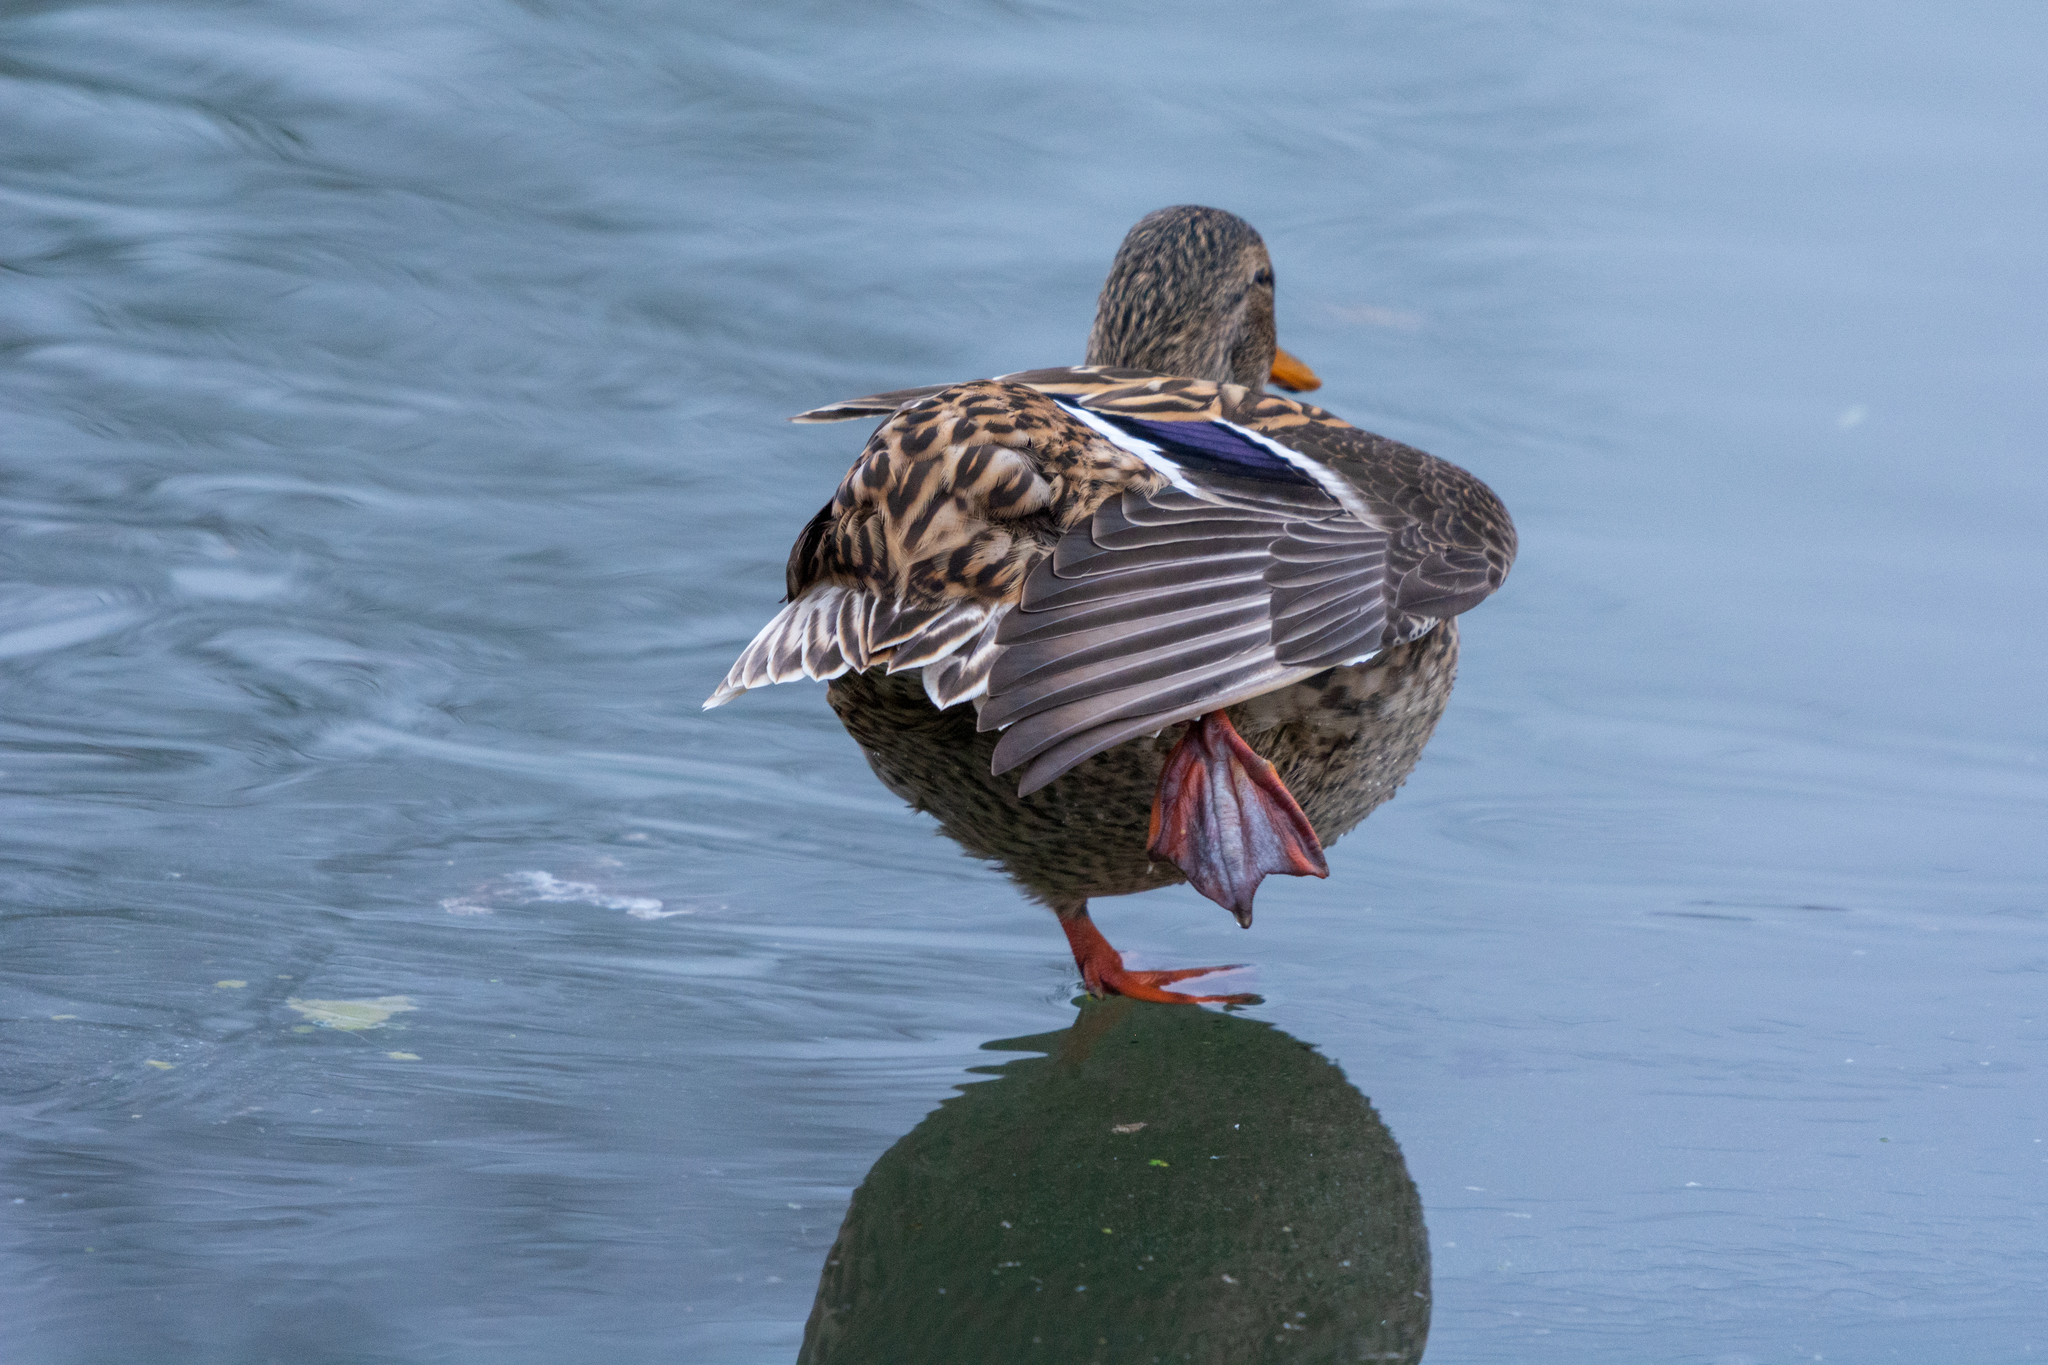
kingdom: Animalia
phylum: Chordata
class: Aves
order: Anseriformes
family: Anatidae
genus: Anas
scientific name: Anas platyrhynchos
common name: Mallard
